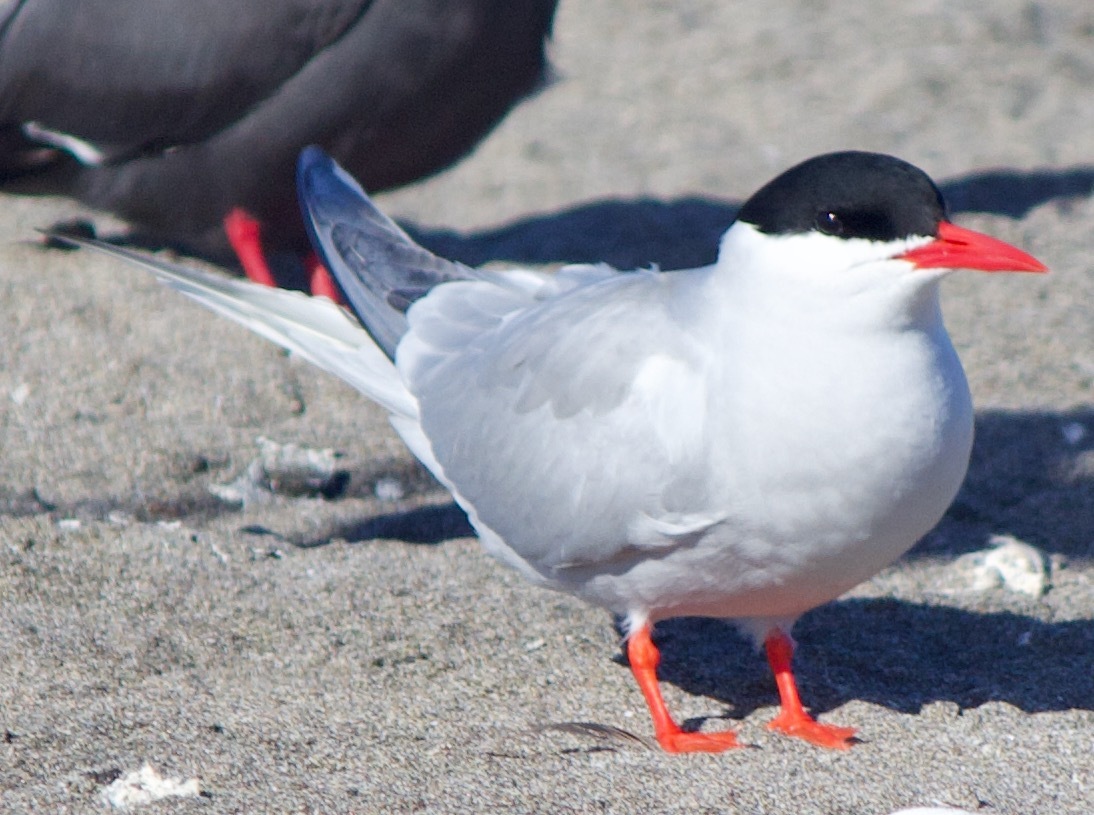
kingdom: Animalia
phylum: Chordata
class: Aves
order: Charadriiformes
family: Laridae
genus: Sterna
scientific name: Sterna hirundinacea
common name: South american tern
